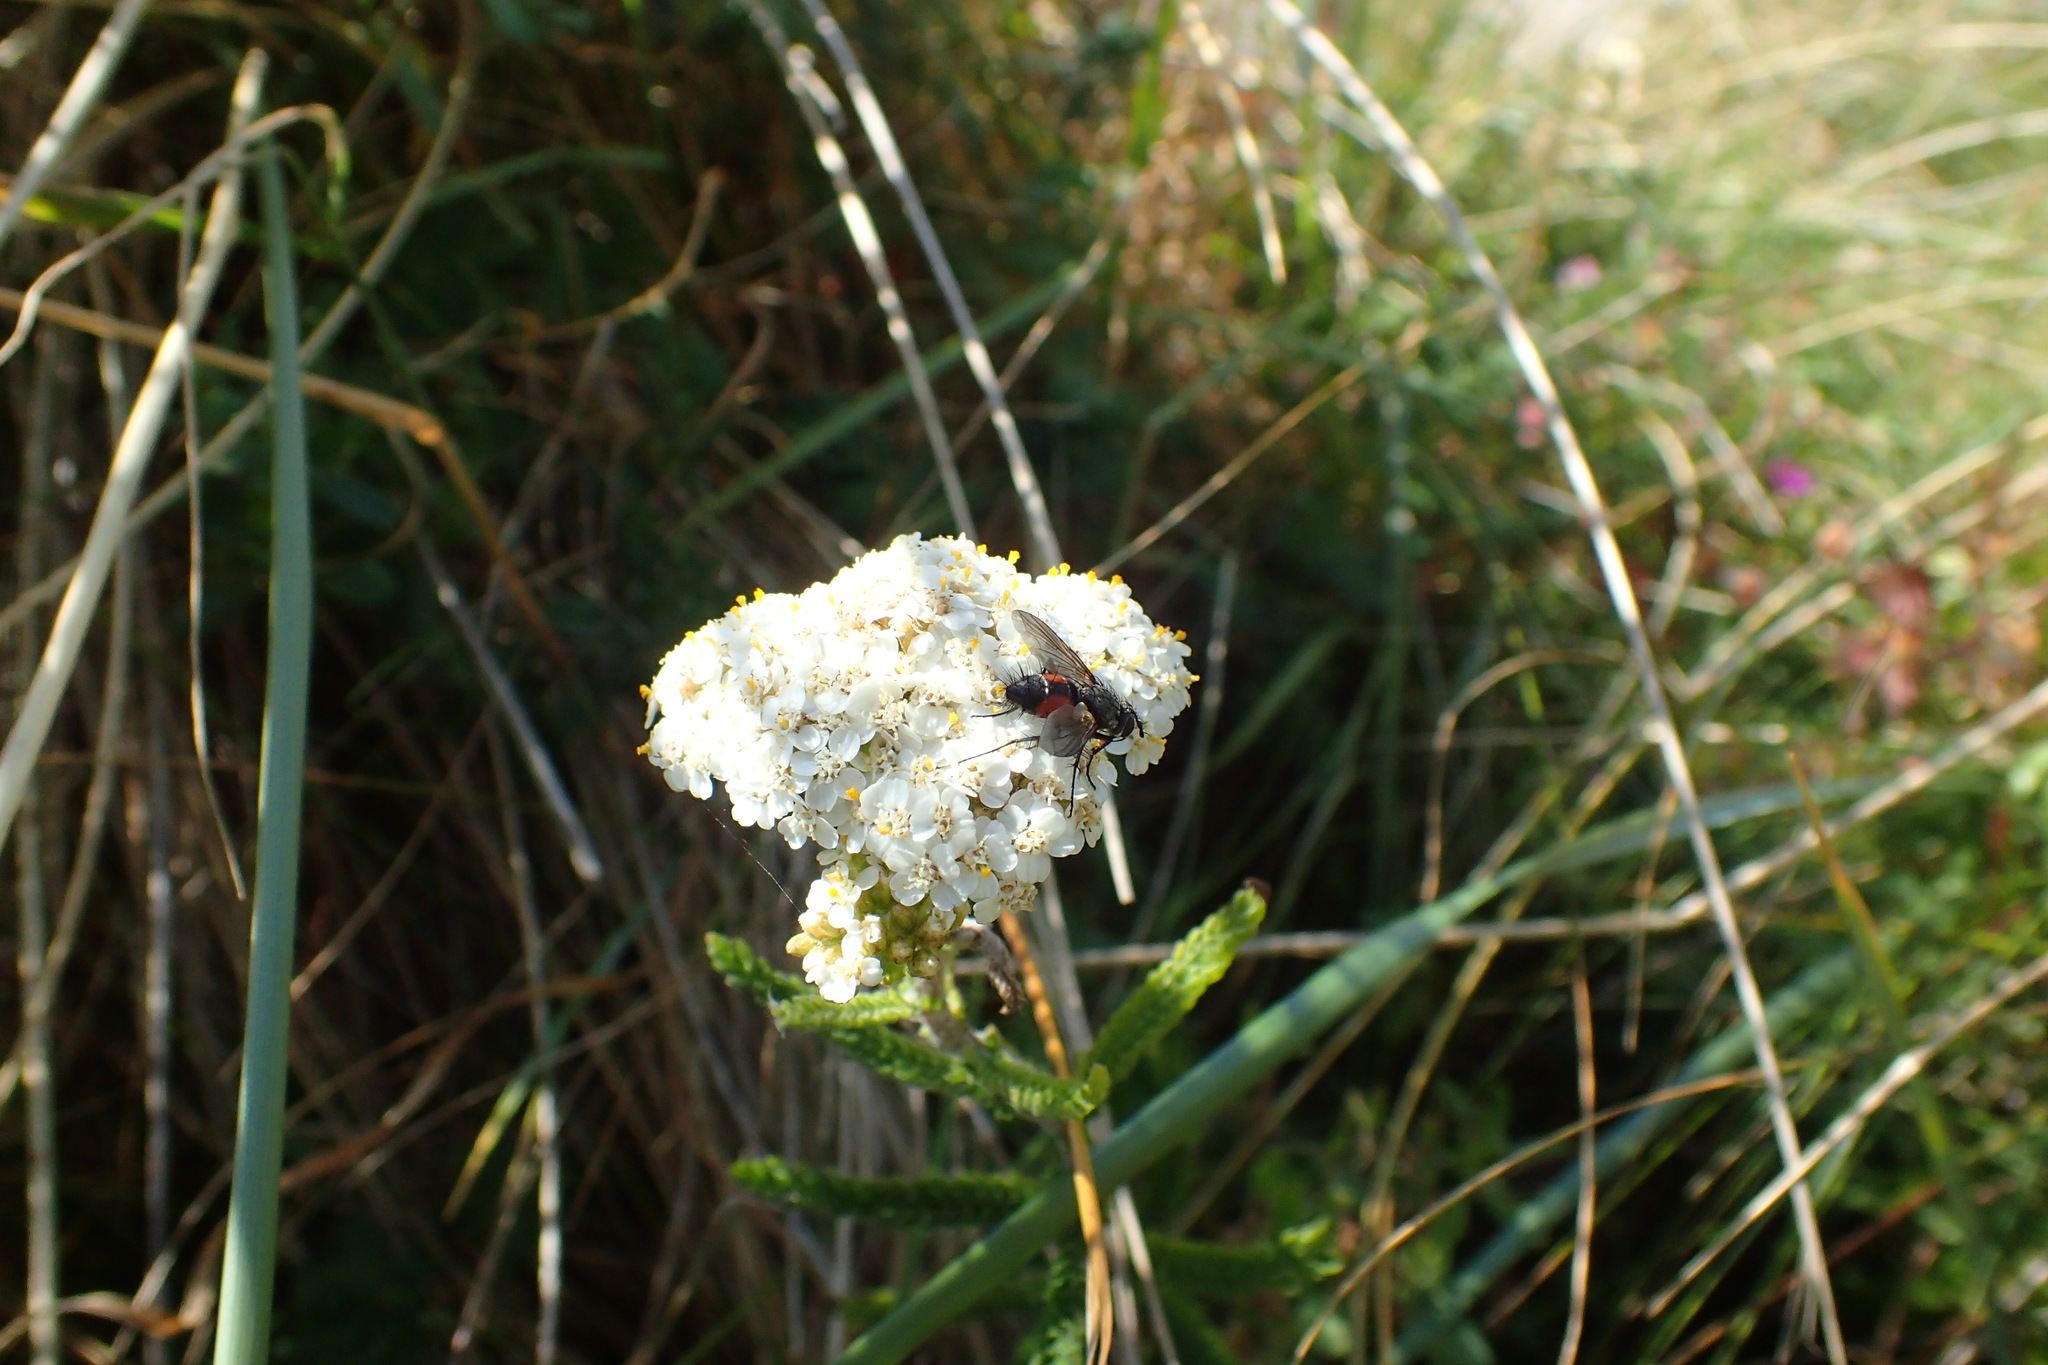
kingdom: Animalia
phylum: Arthropoda
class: Insecta
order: Diptera
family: Tachinidae
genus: Eriothrix
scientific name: Eriothrix rufomaculatus
